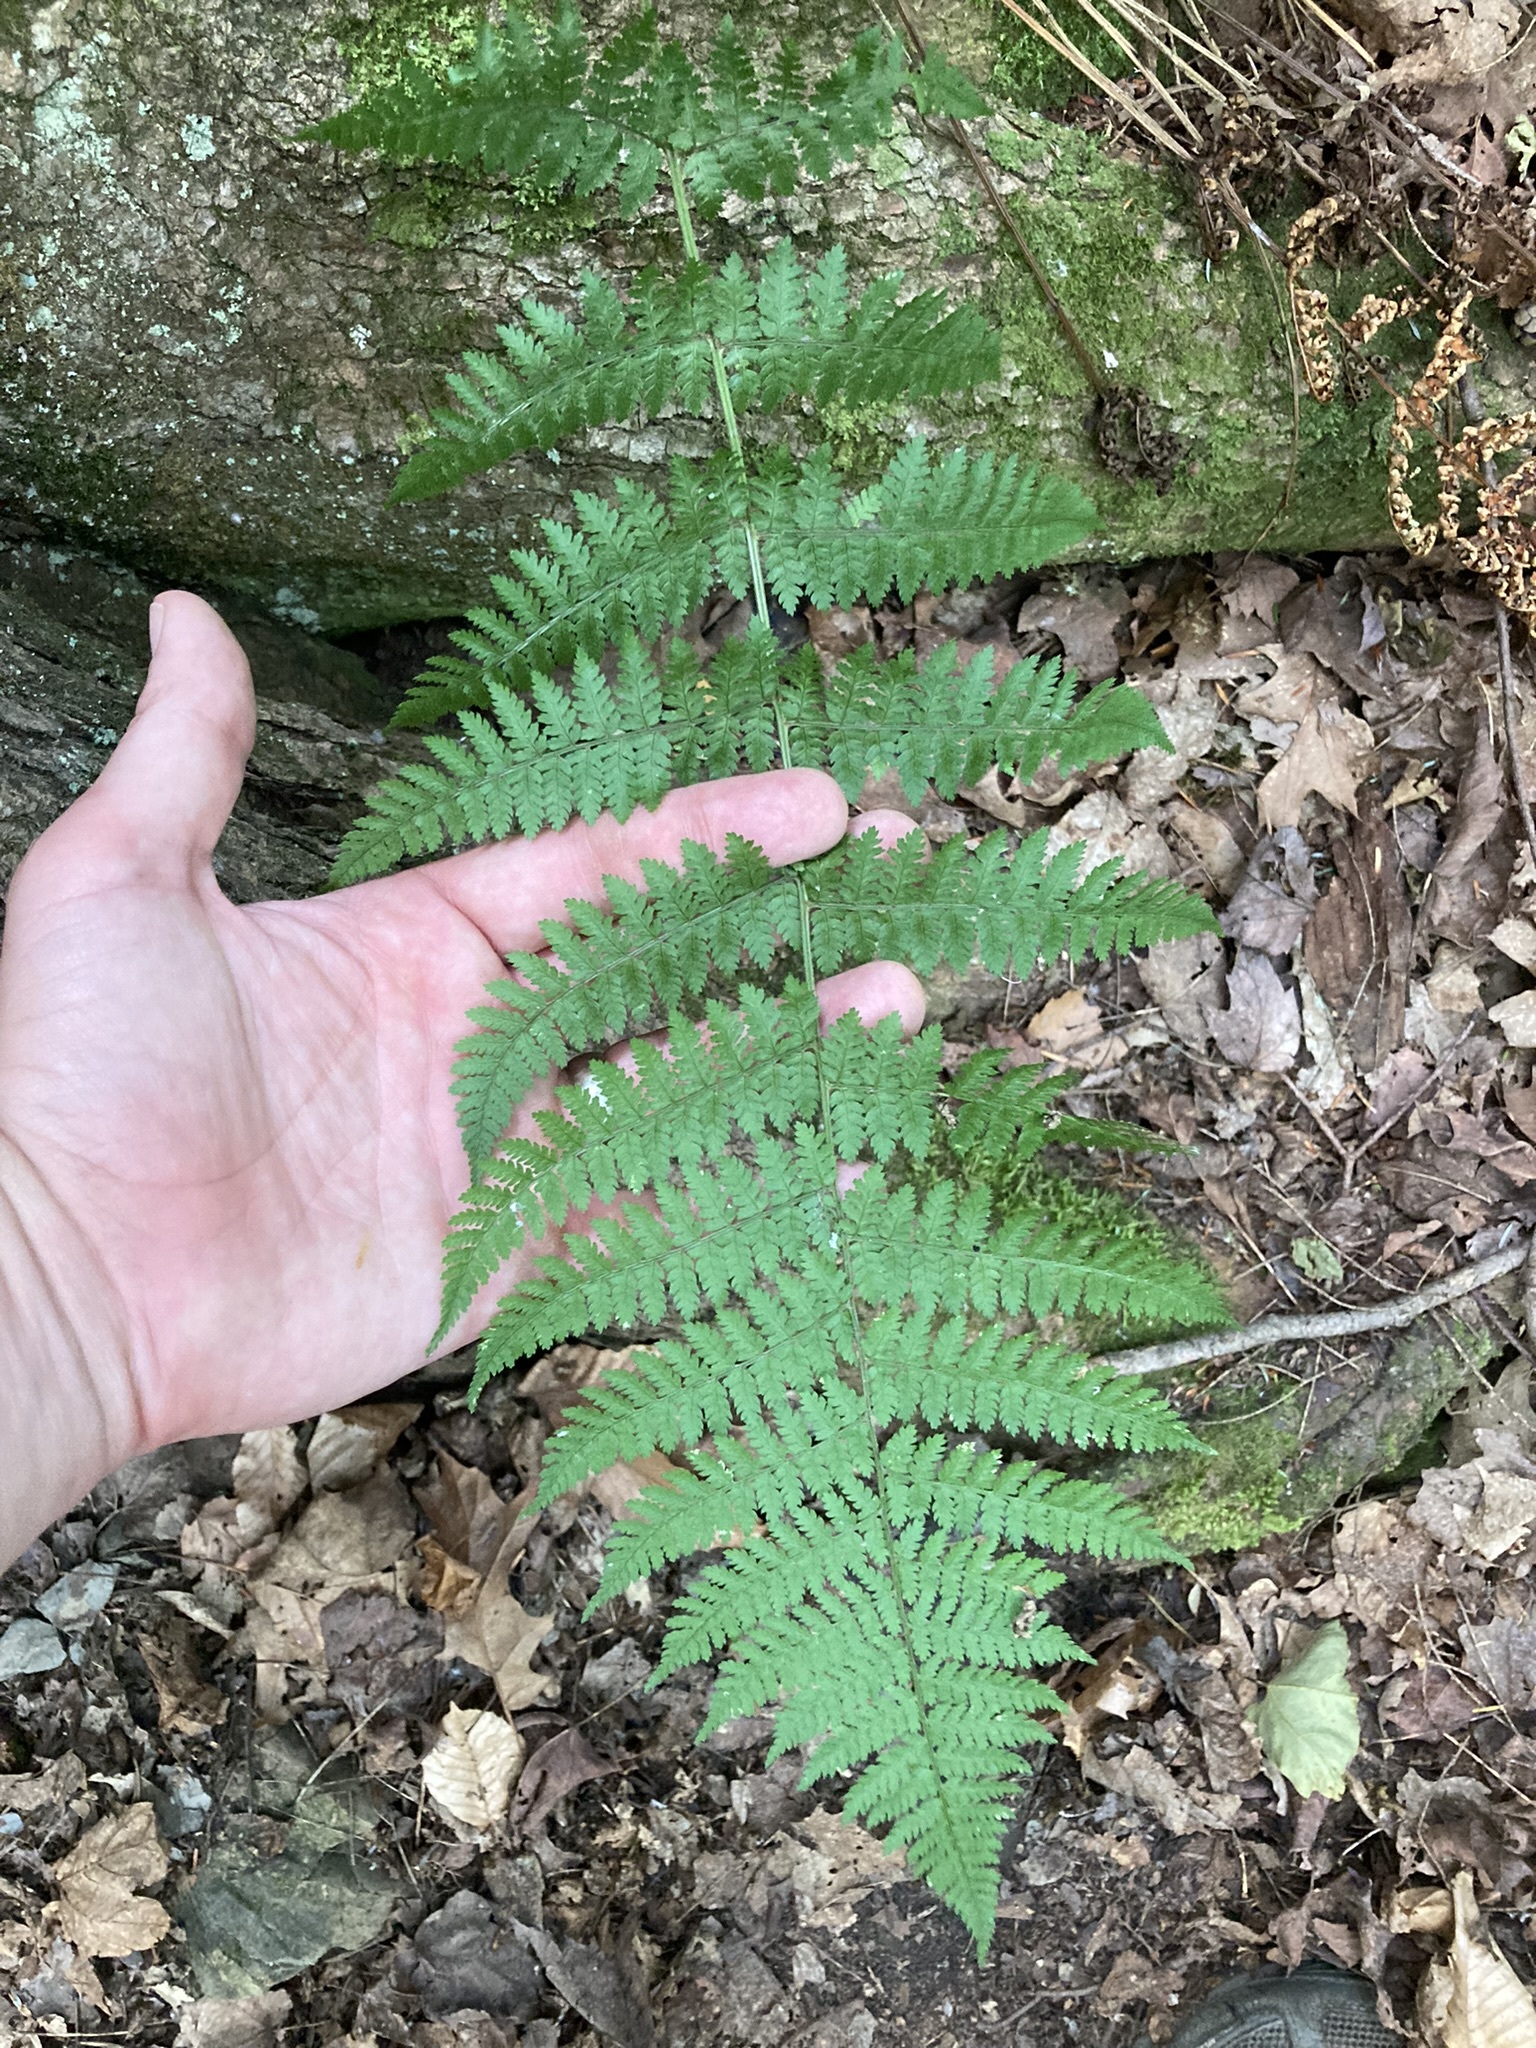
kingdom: Plantae
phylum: Tracheophyta
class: Polypodiopsida
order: Polypodiales
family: Dryopteridaceae
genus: Dryopteris
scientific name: Dryopteris intermedia
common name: Evergreen wood fern
